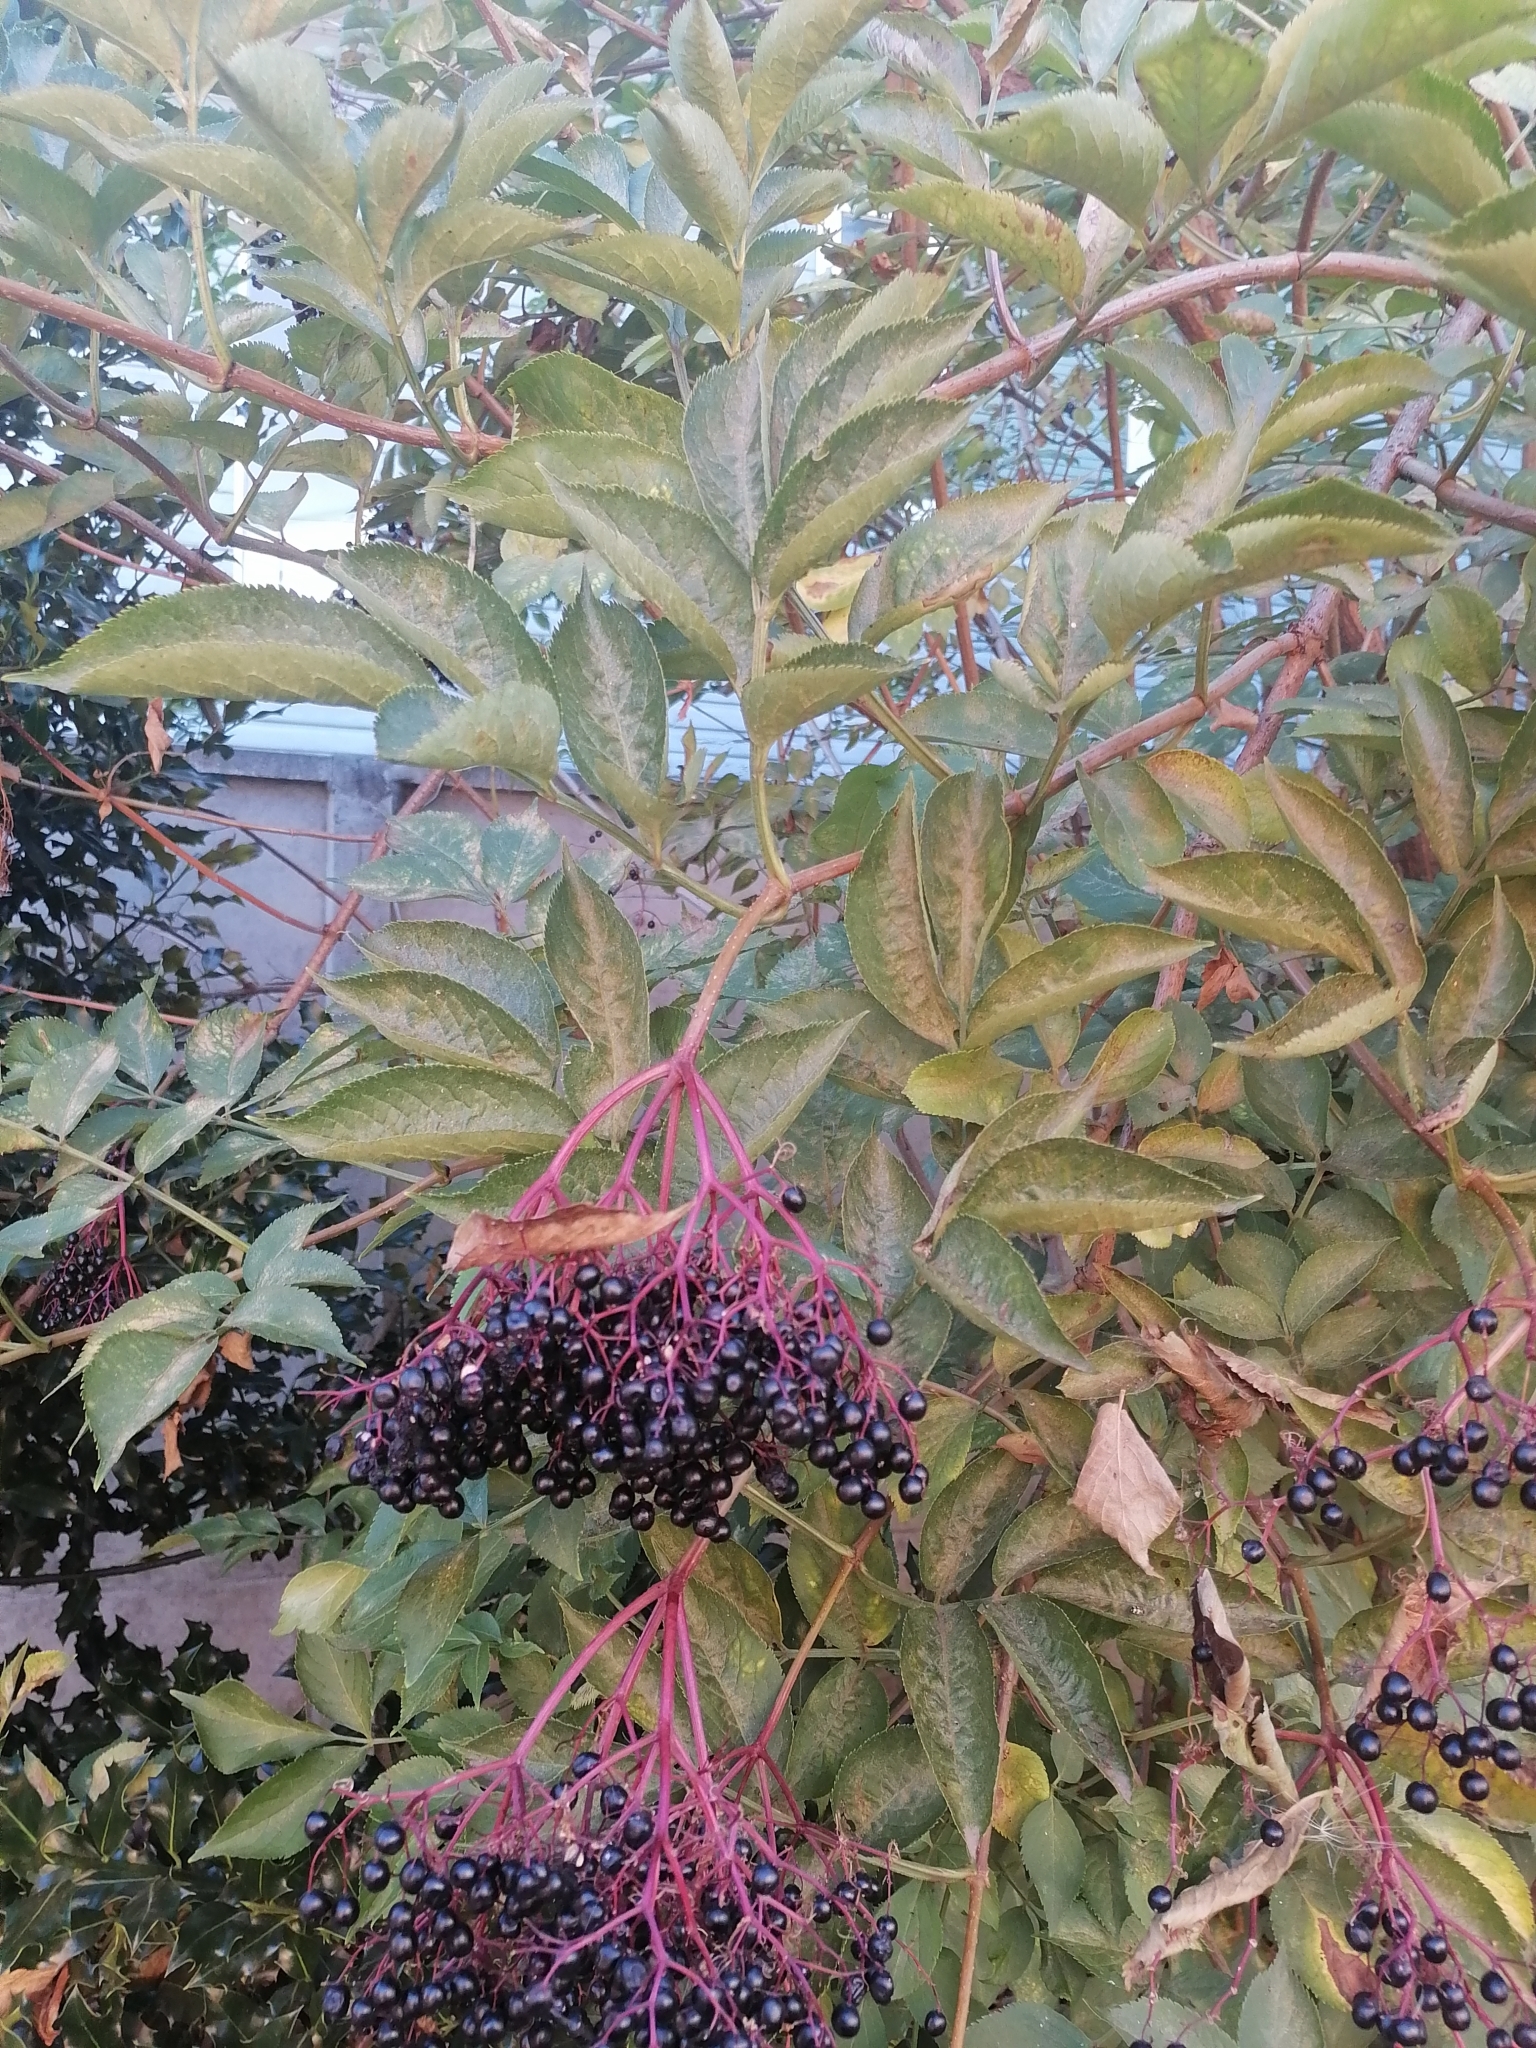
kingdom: Plantae
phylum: Tracheophyta
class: Magnoliopsida
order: Dipsacales
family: Viburnaceae
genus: Sambucus
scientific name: Sambucus nigra
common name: Elder
